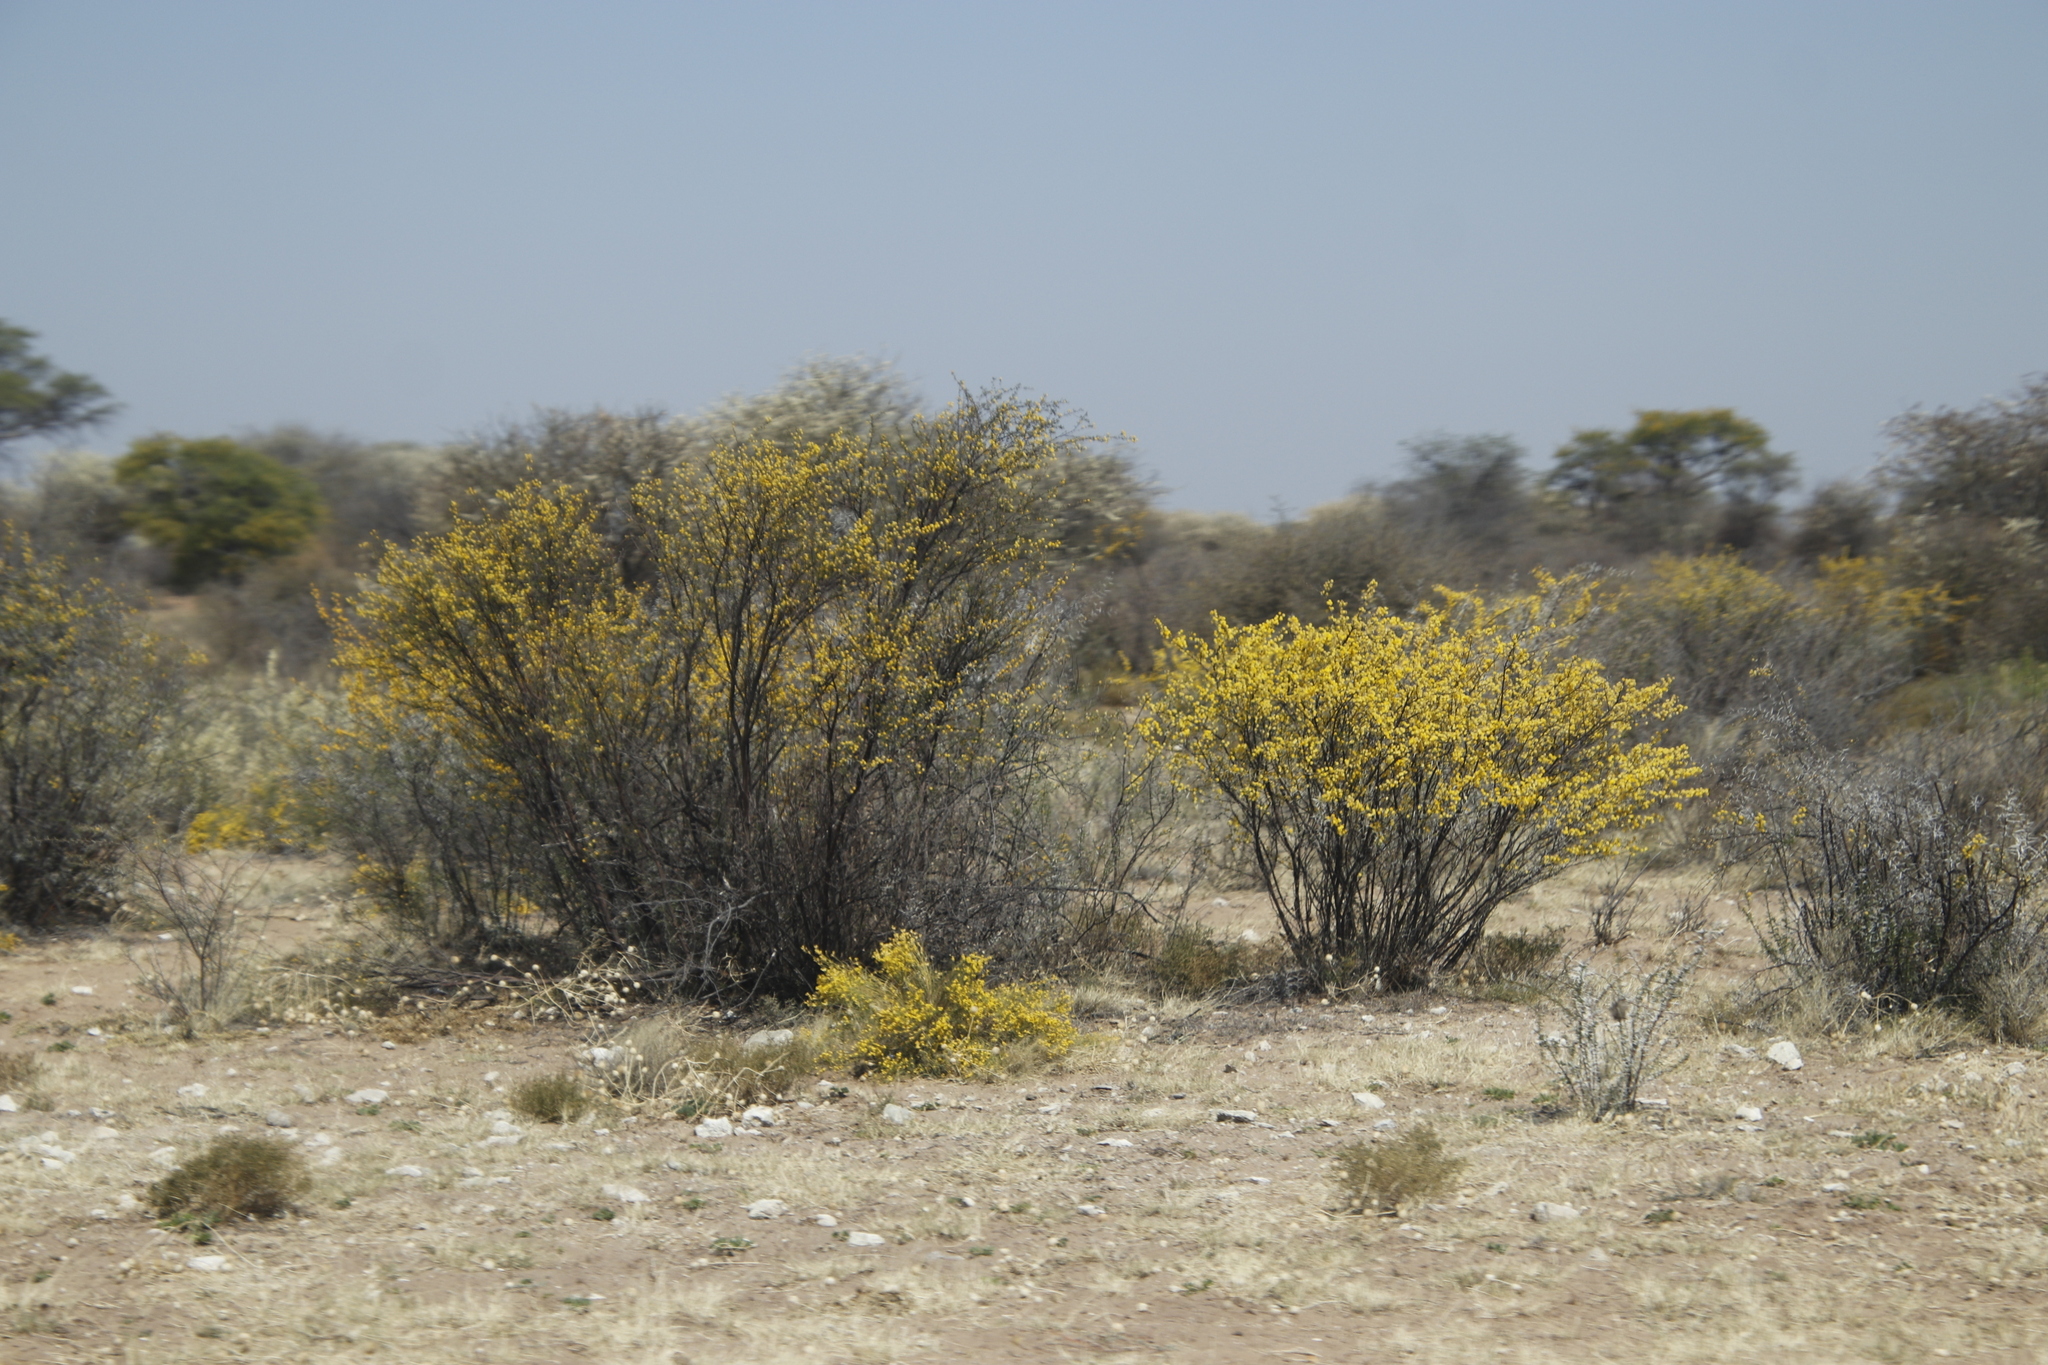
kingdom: Plantae
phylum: Tracheophyta
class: Magnoliopsida
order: Lamiales
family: Bignoniaceae
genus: Rhigozum
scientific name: Rhigozum brevispinosum
